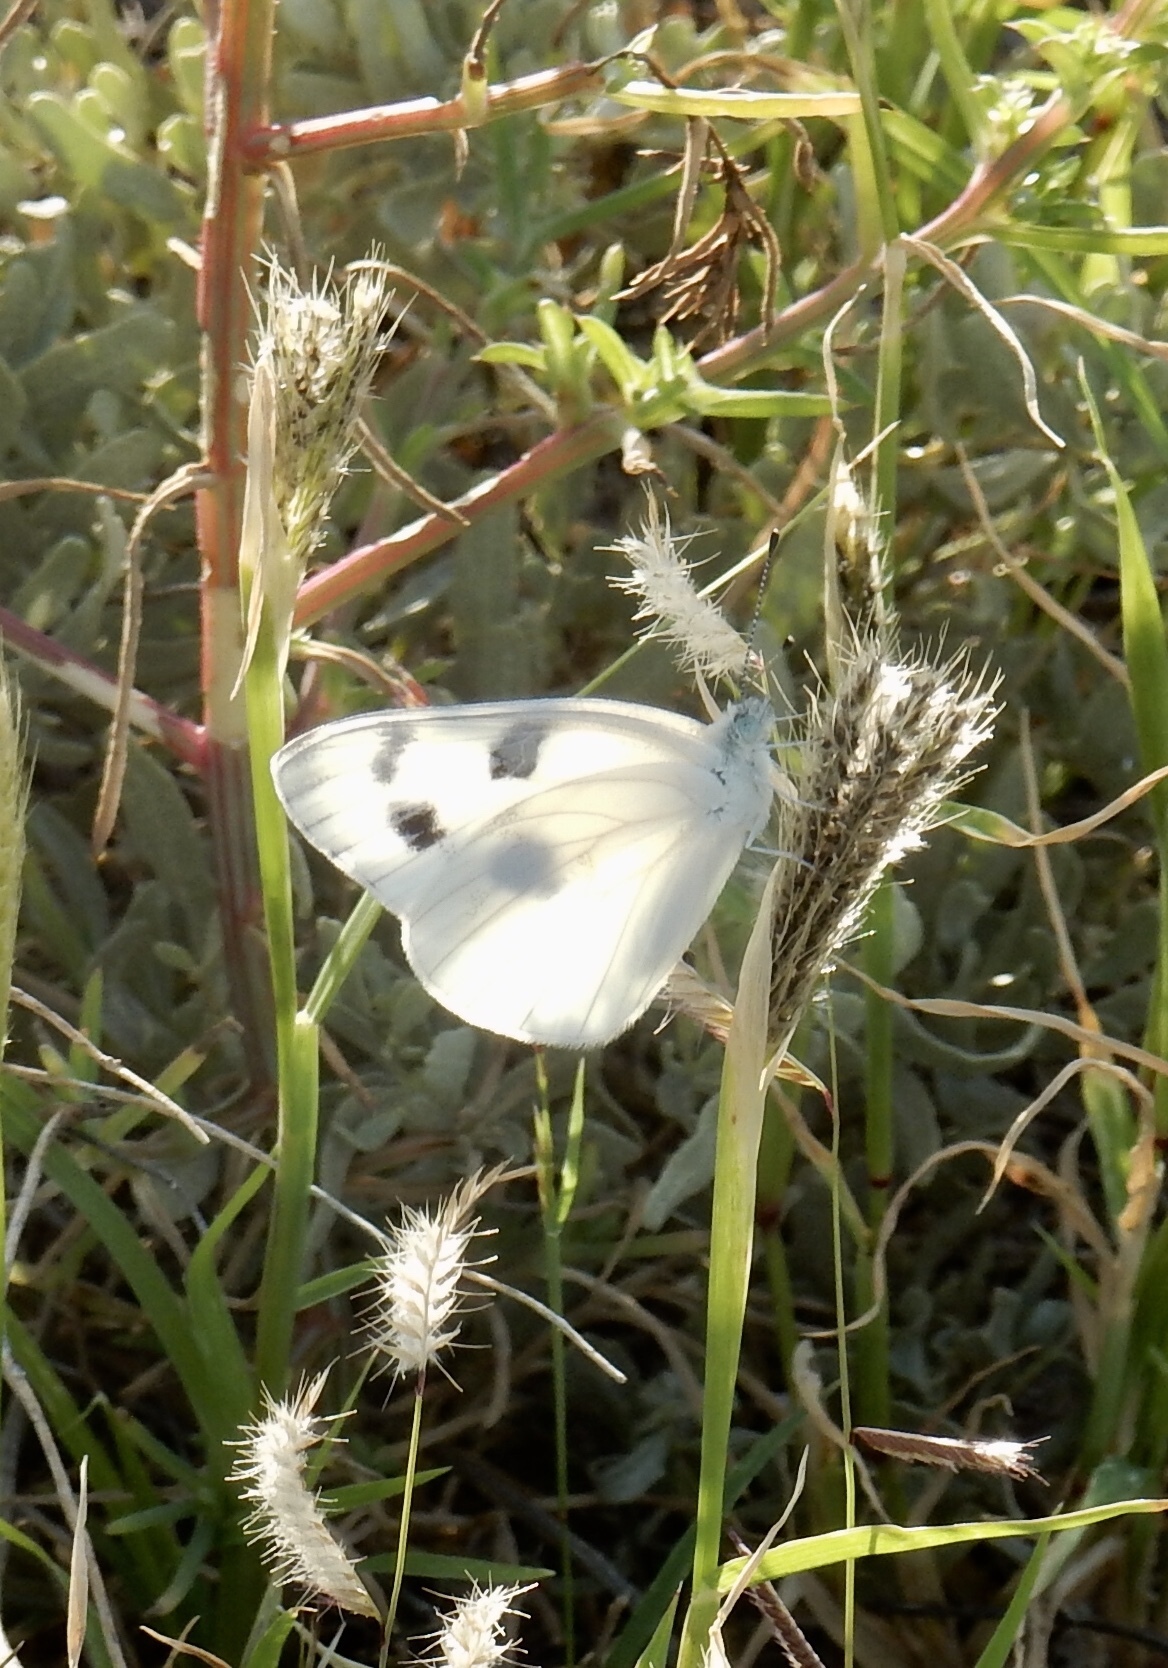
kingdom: Animalia
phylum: Arthropoda
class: Insecta
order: Lepidoptera
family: Pieridae
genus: Pontia
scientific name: Pontia protodice
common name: Checkered white
